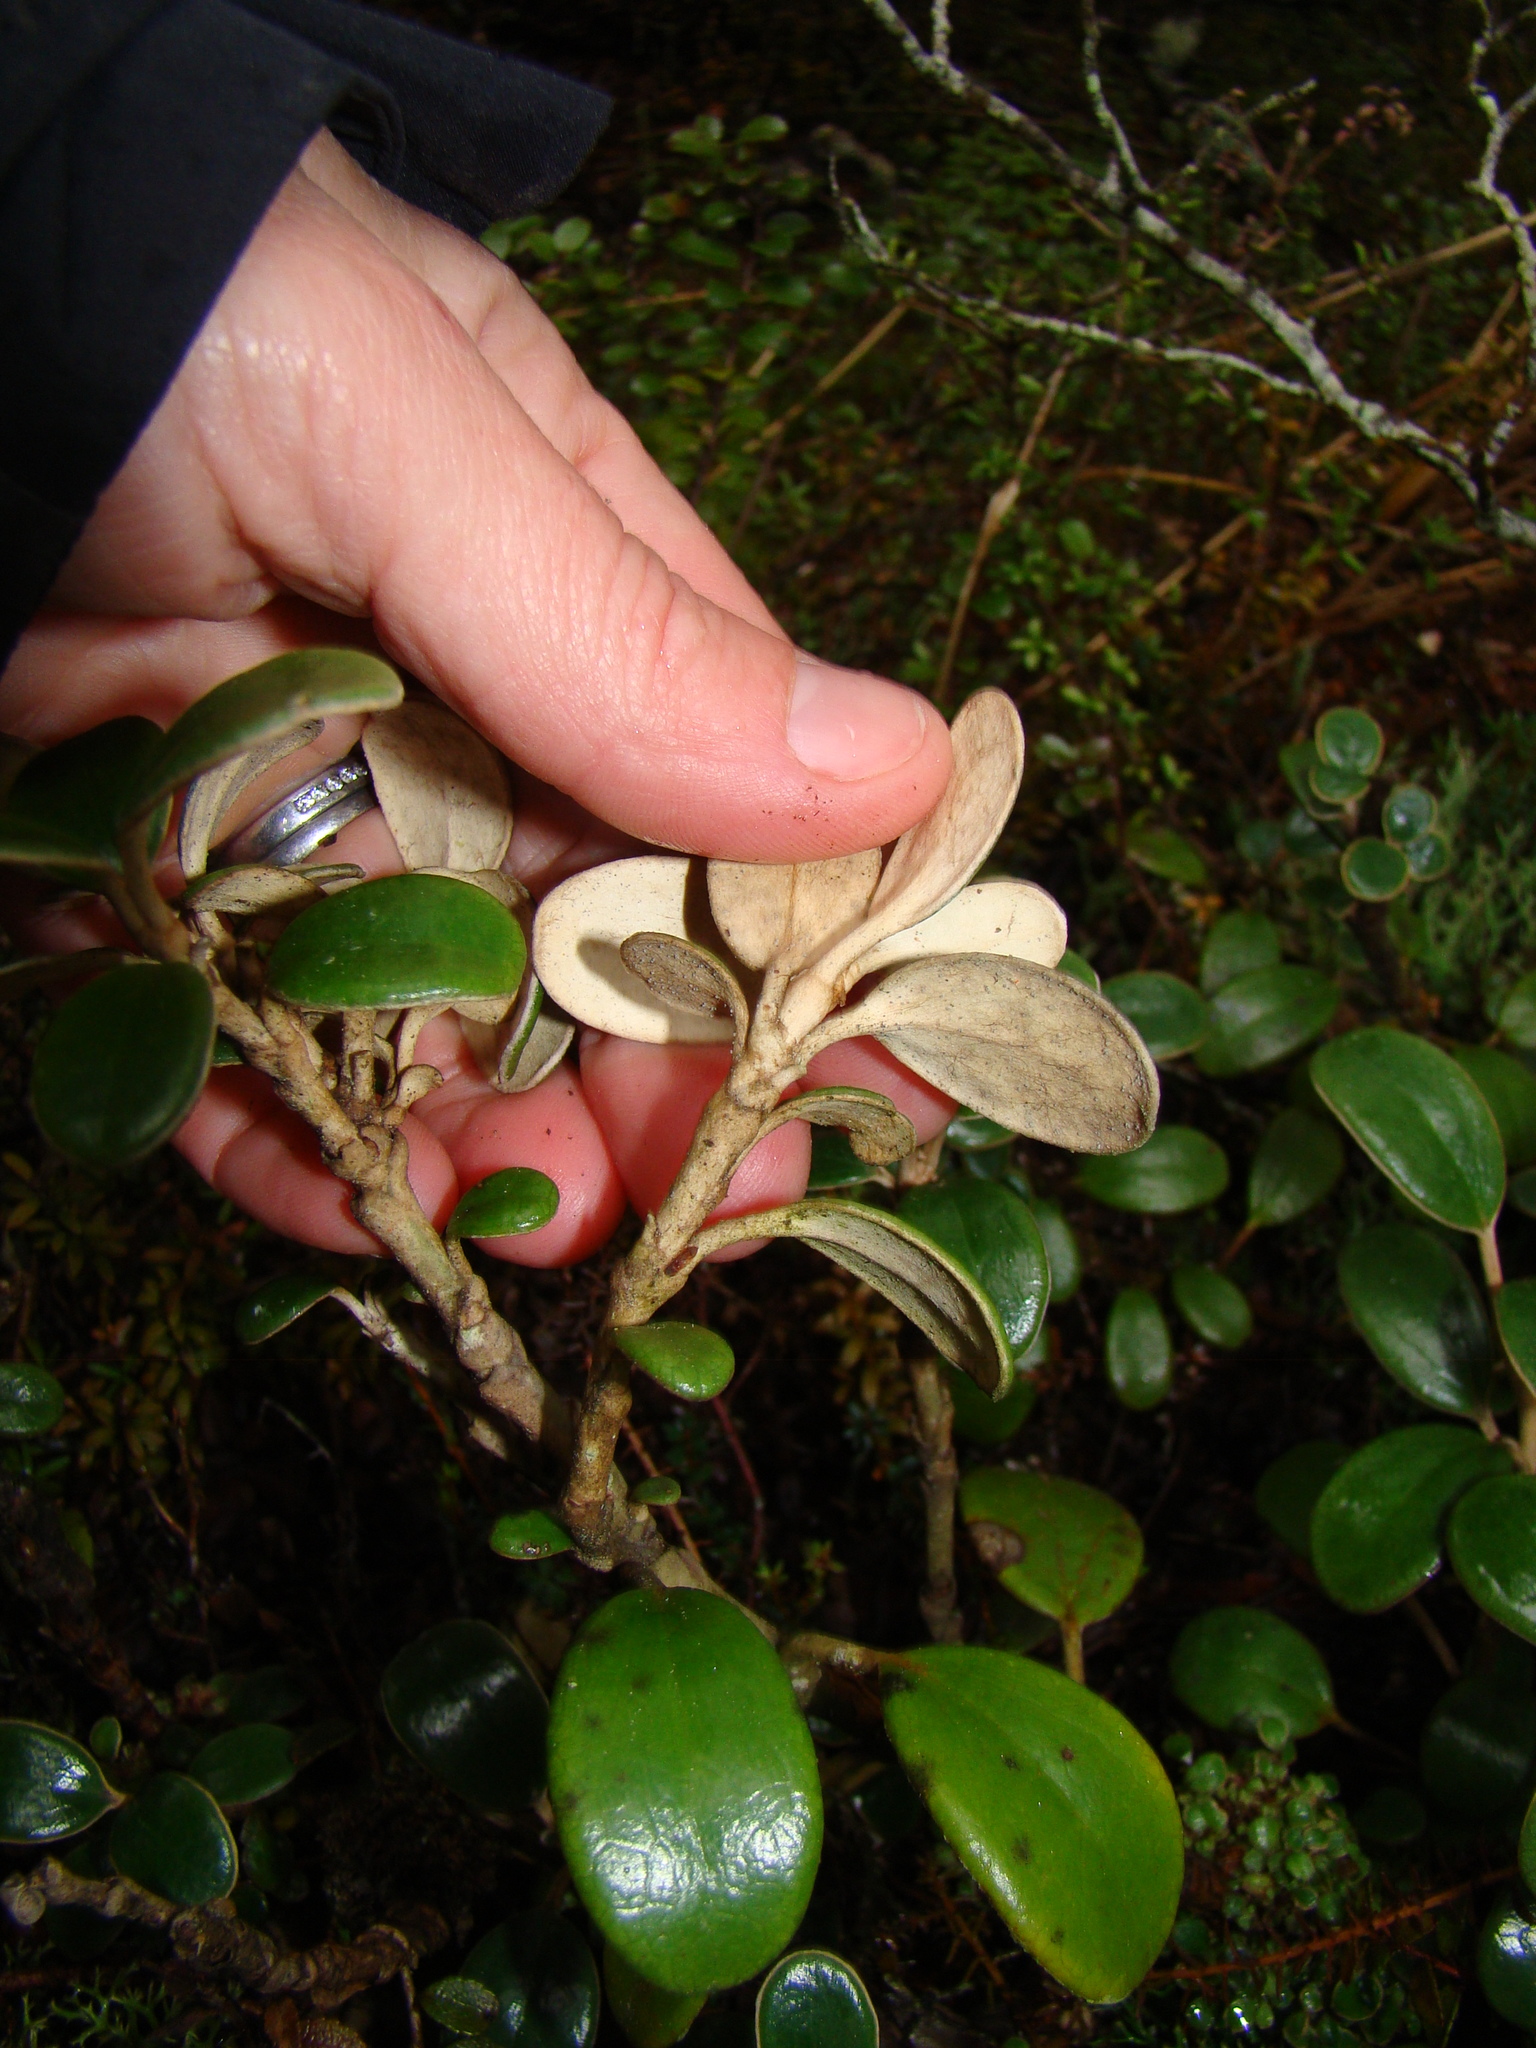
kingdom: Plantae
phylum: Tracheophyta
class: Magnoliopsida
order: Asterales
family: Asteraceae
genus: Brachyglottis
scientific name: Brachyglottis bidwillii
